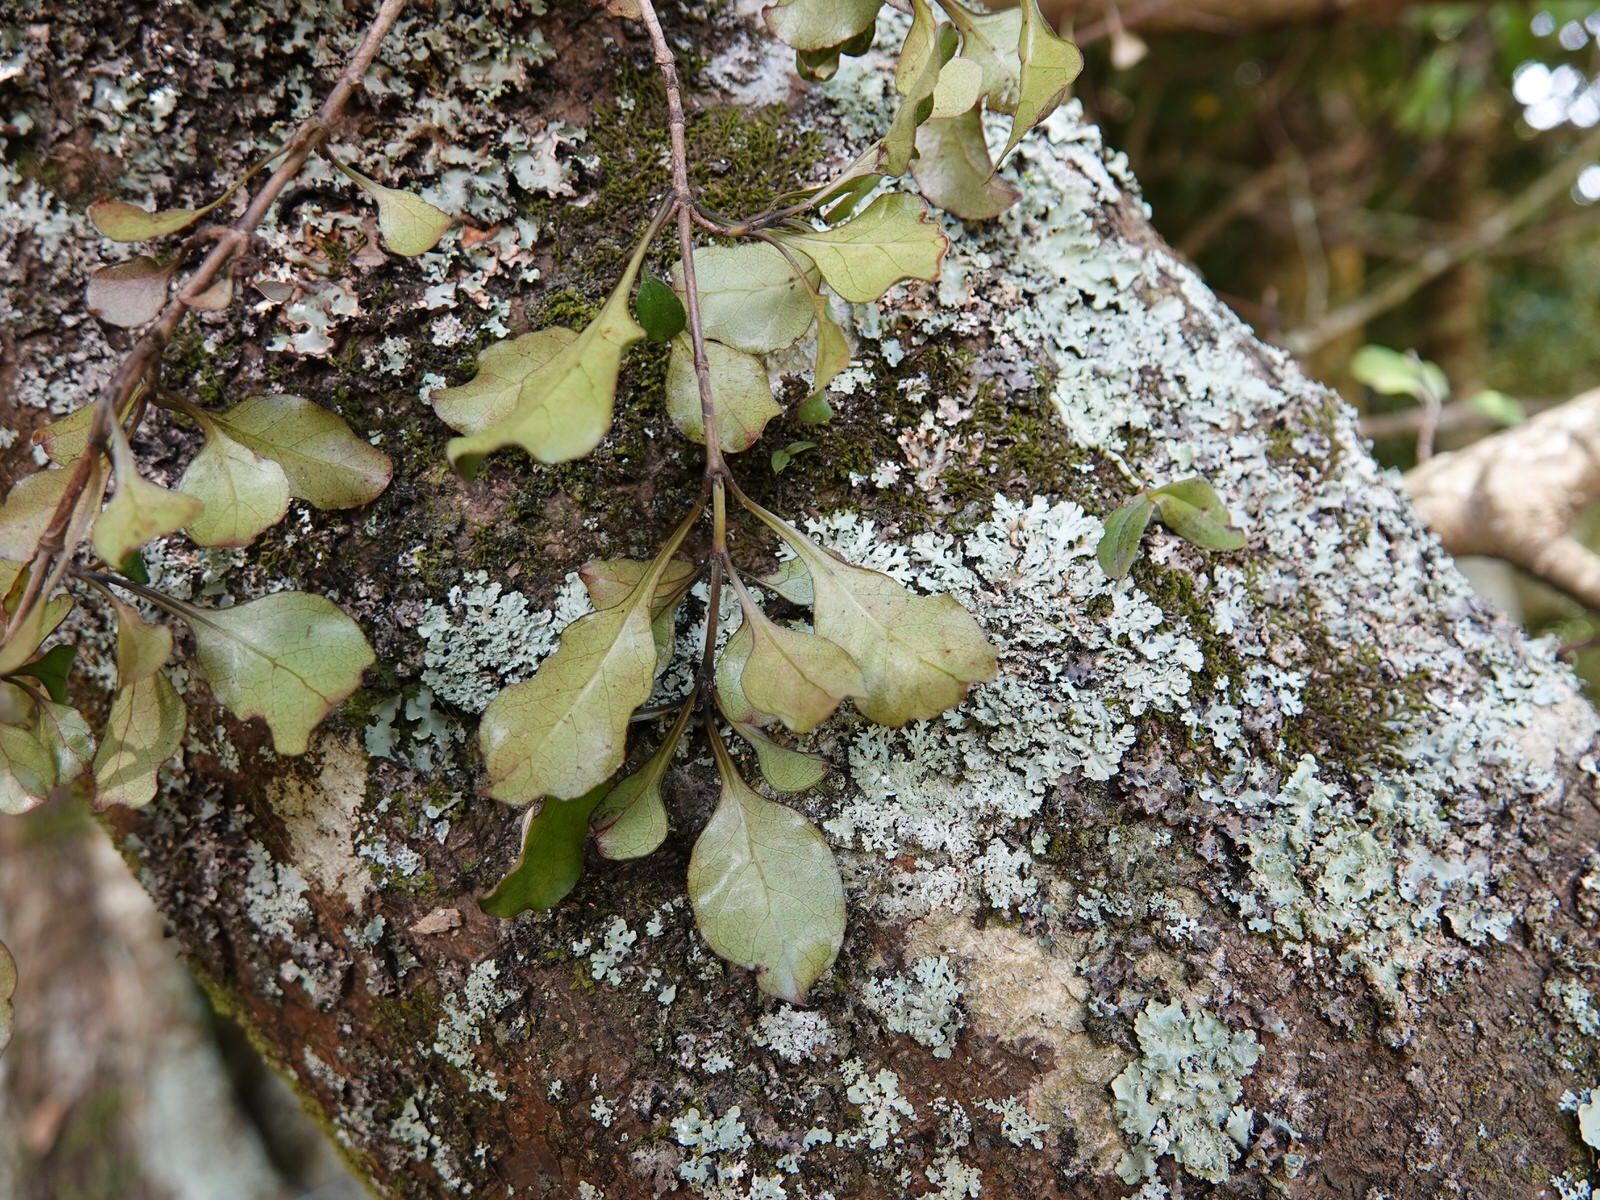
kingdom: Plantae
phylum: Tracheophyta
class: Liliopsida
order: Asparagales
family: Orchidaceae
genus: Drymoanthus
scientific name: Drymoanthus adversus
